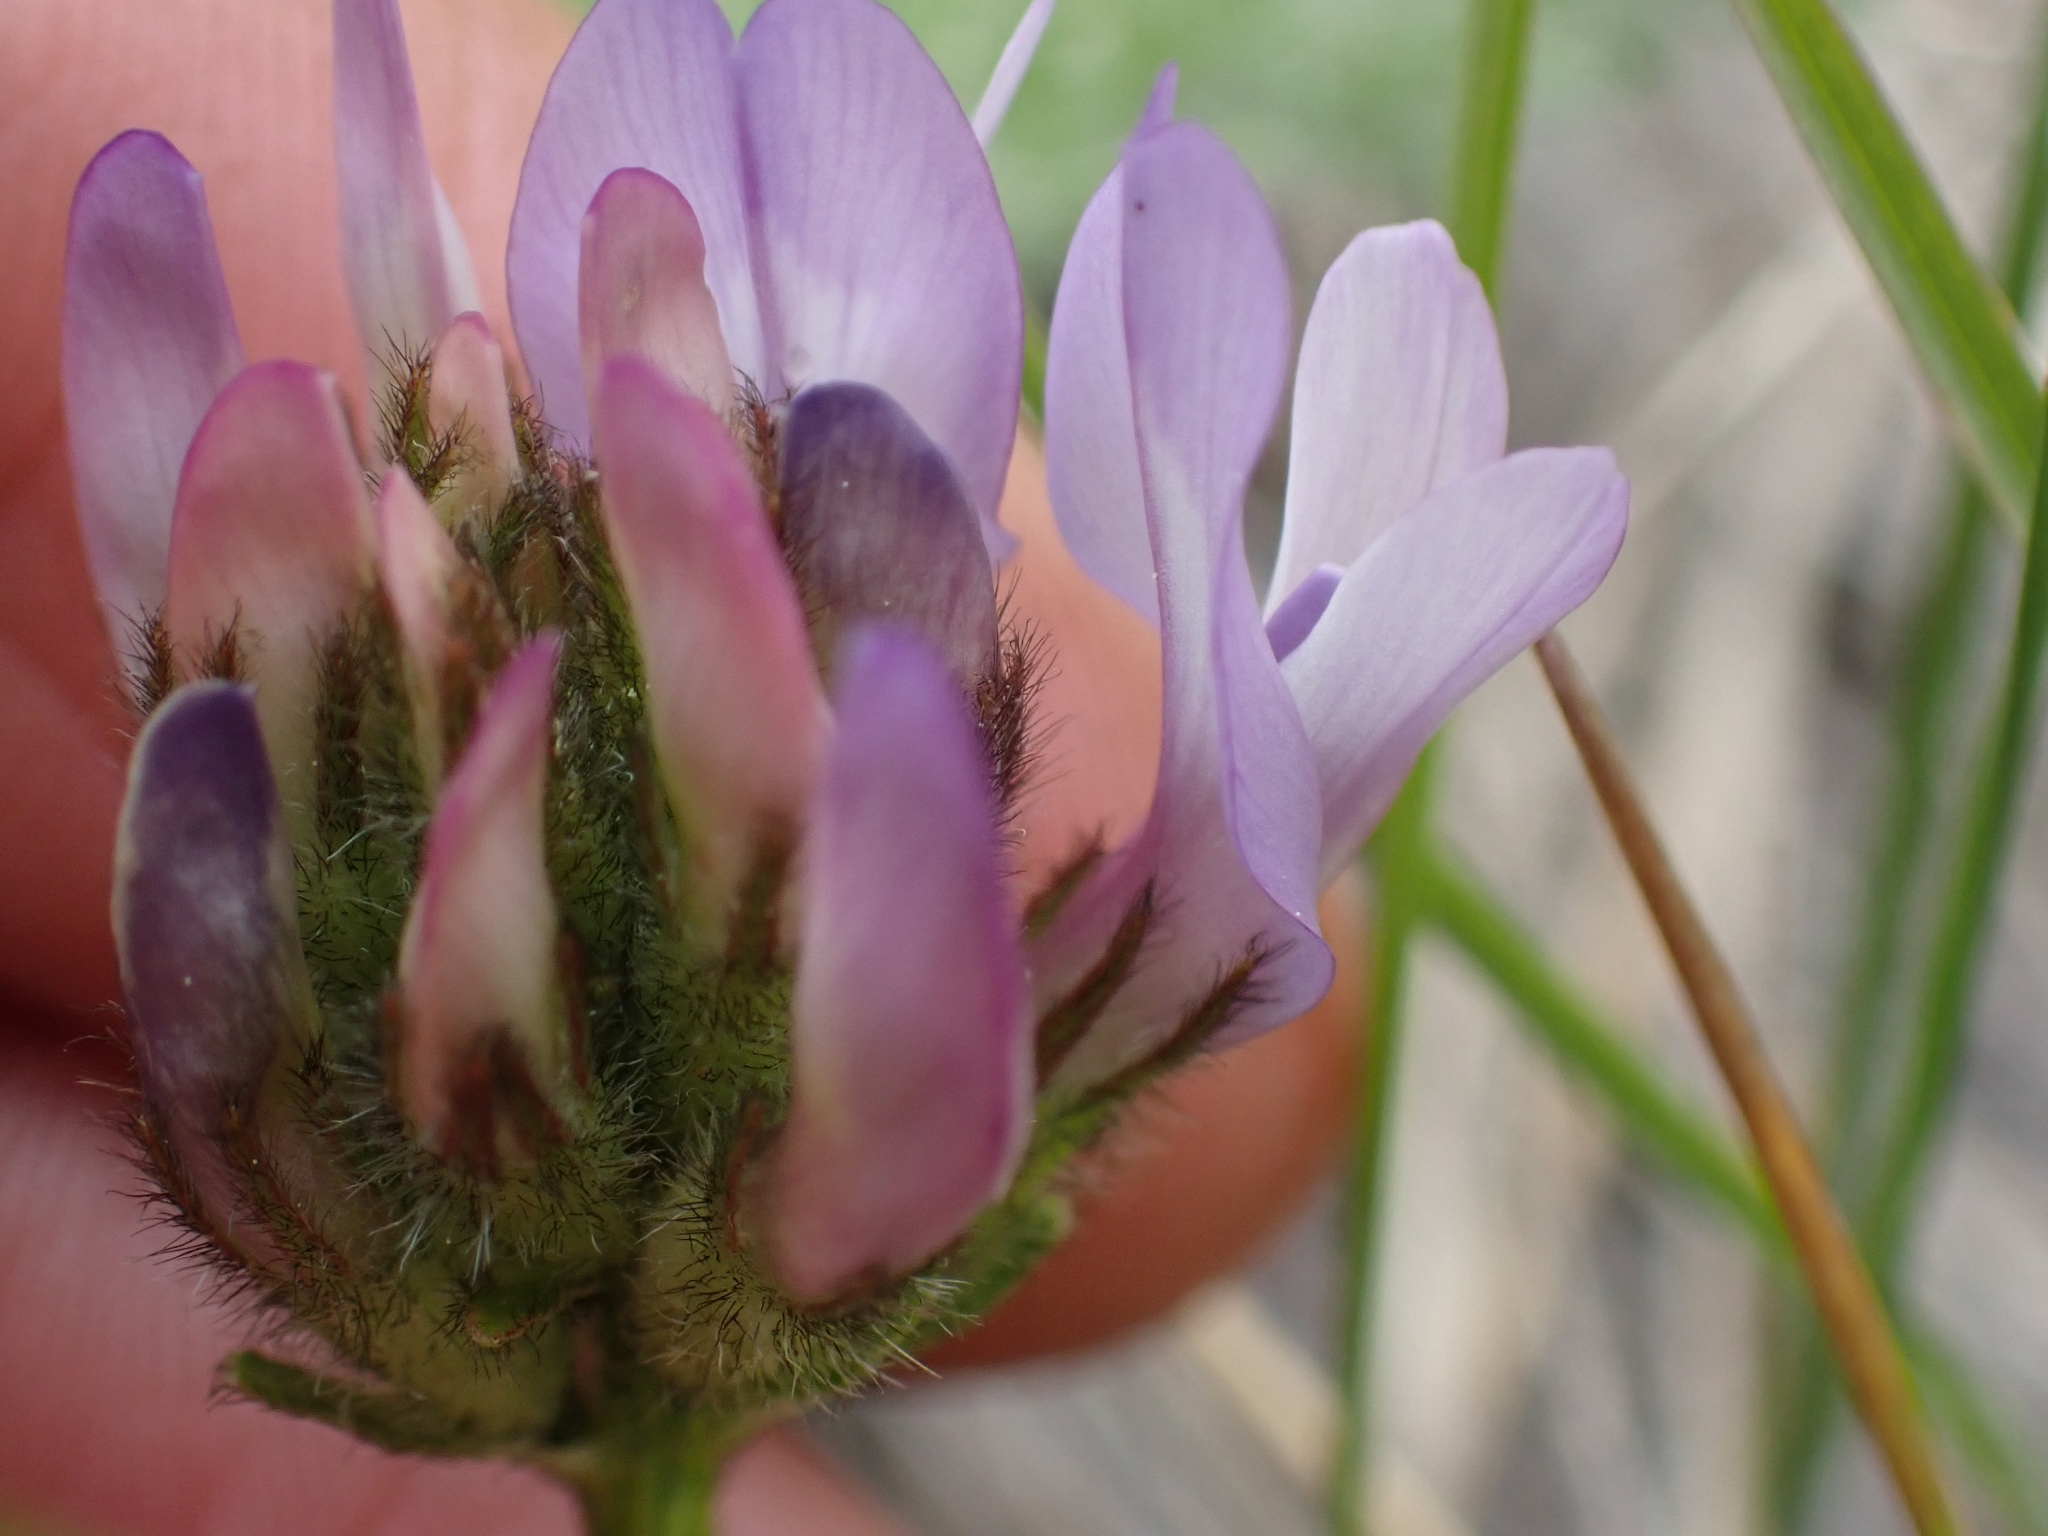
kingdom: Plantae
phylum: Tracheophyta
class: Magnoliopsida
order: Fabales
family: Fabaceae
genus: Astragalus
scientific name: Astragalus agrestis
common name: Field milk-vetch
